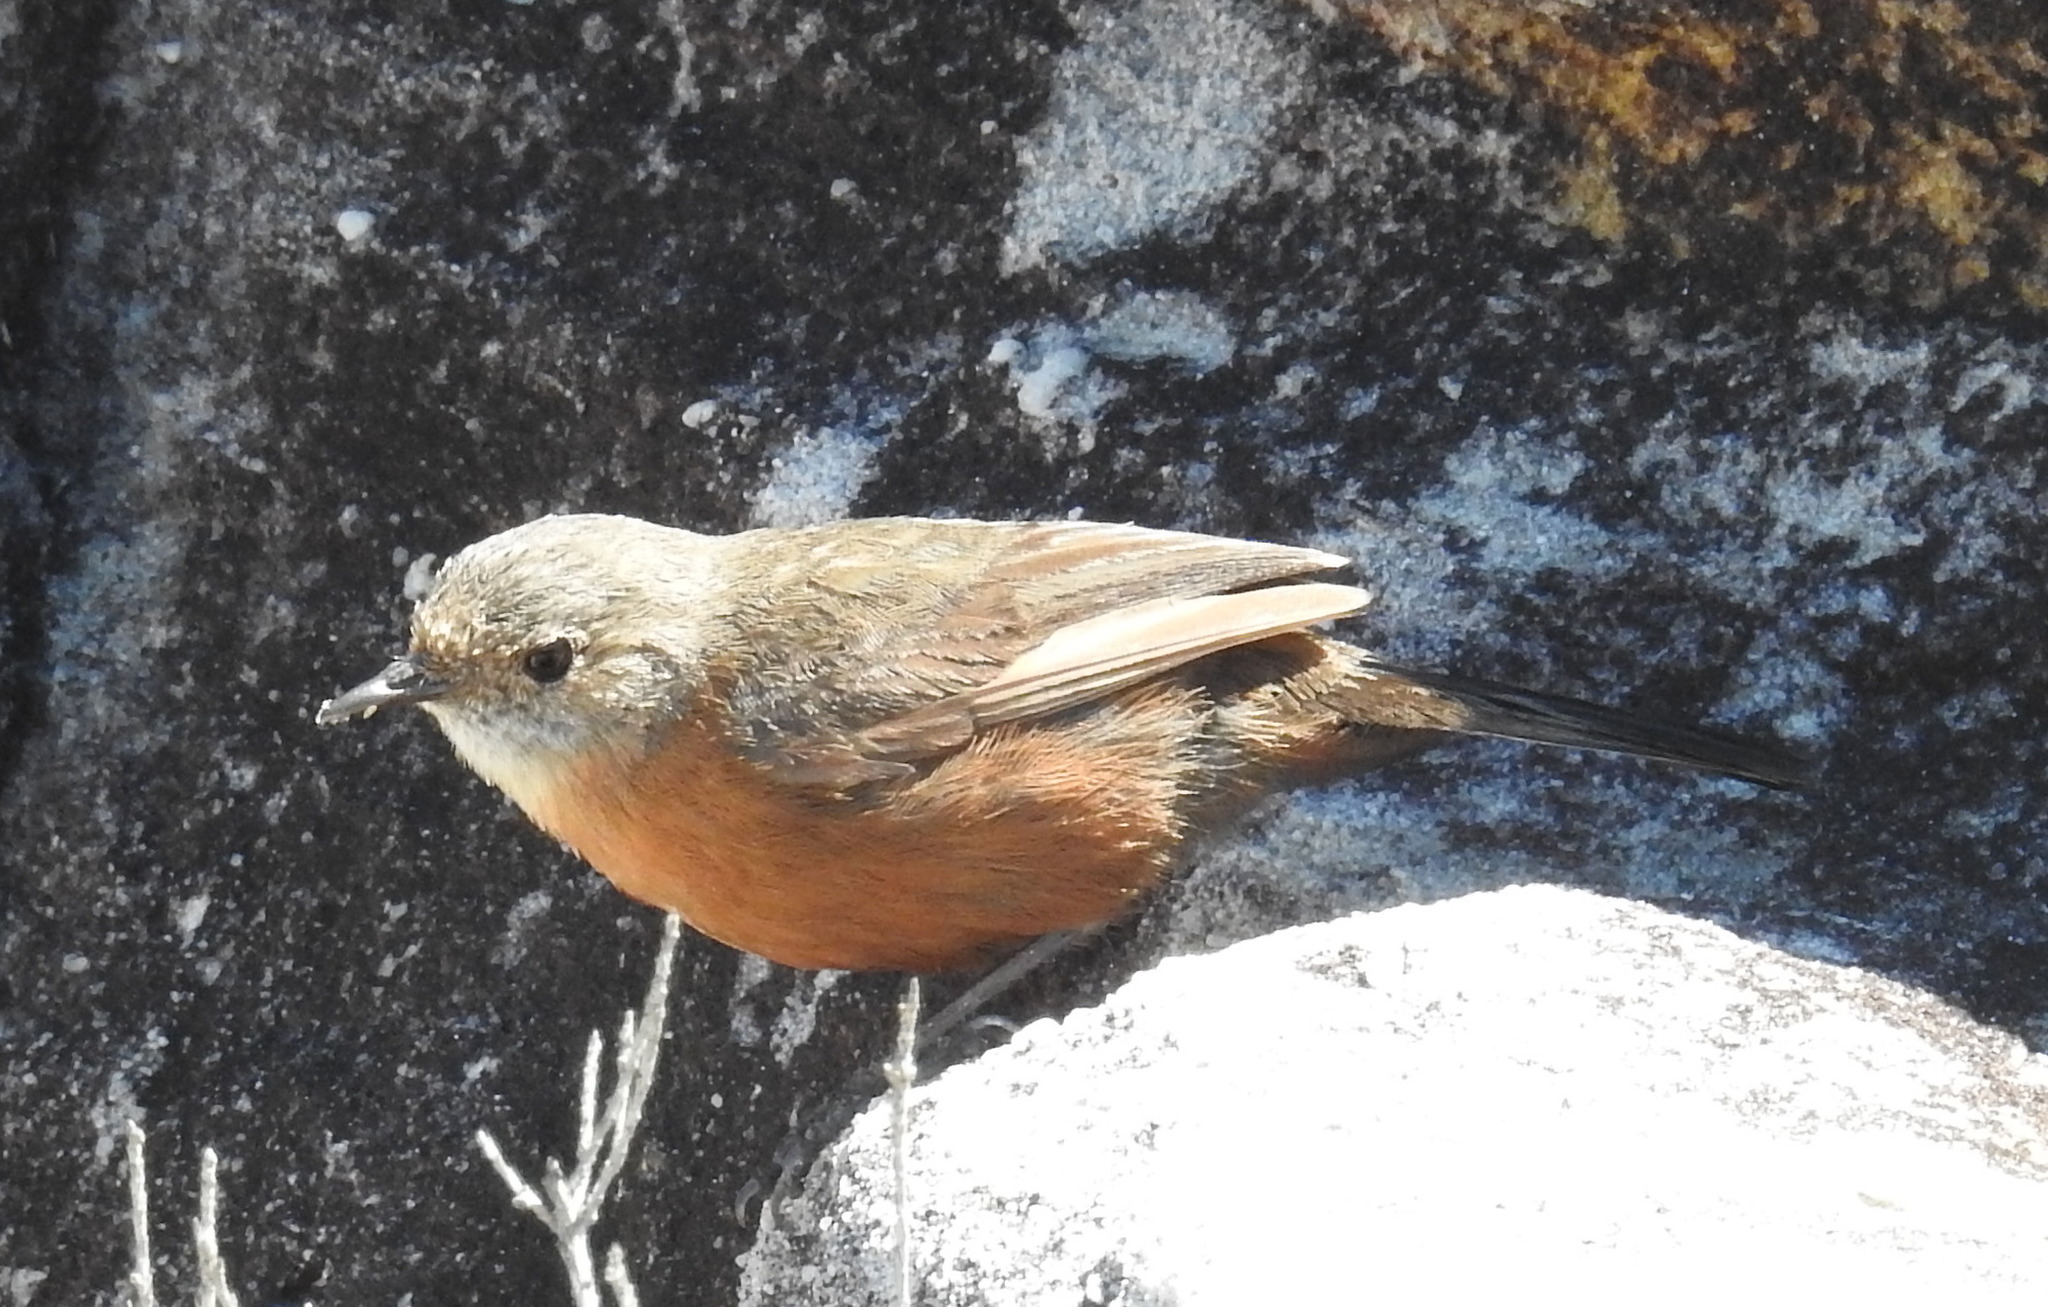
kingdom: Animalia
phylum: Chordata
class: Aves
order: Passeriformes
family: Acanthizidae
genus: Origma
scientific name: Origma solitaria
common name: Rockwarbler
